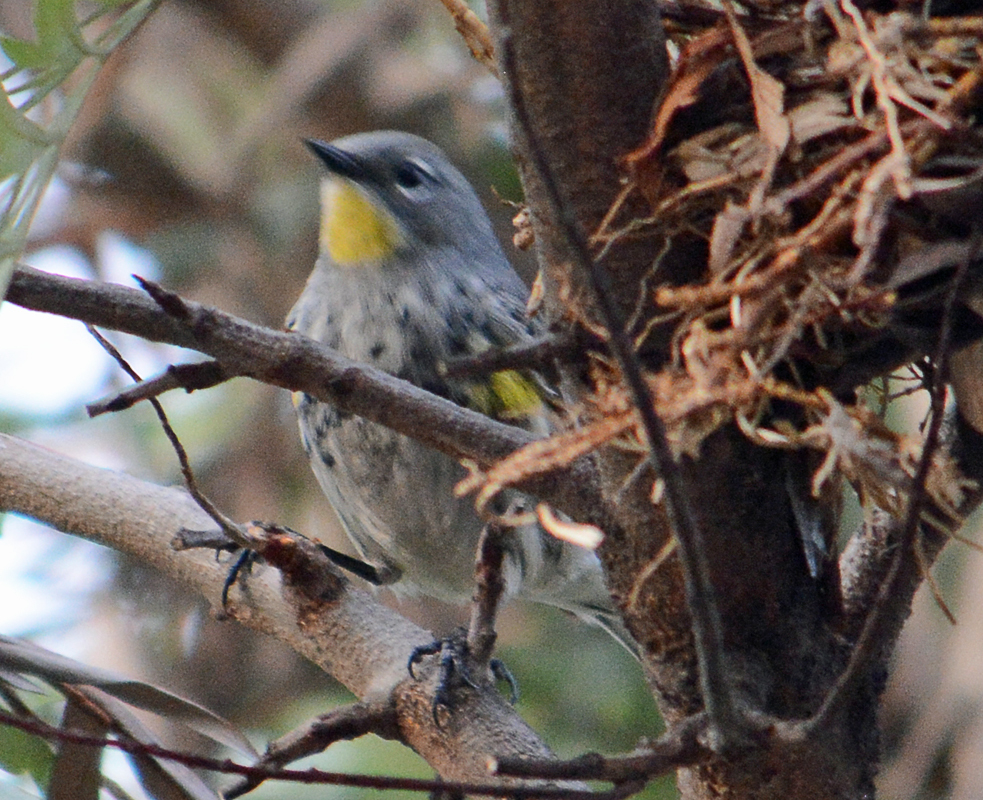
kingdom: Animalia
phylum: Chordata
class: Aves
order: Passeriformes
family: Parulidae
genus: Setophaga
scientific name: Setophaga auduboni
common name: Audubon's warbler
